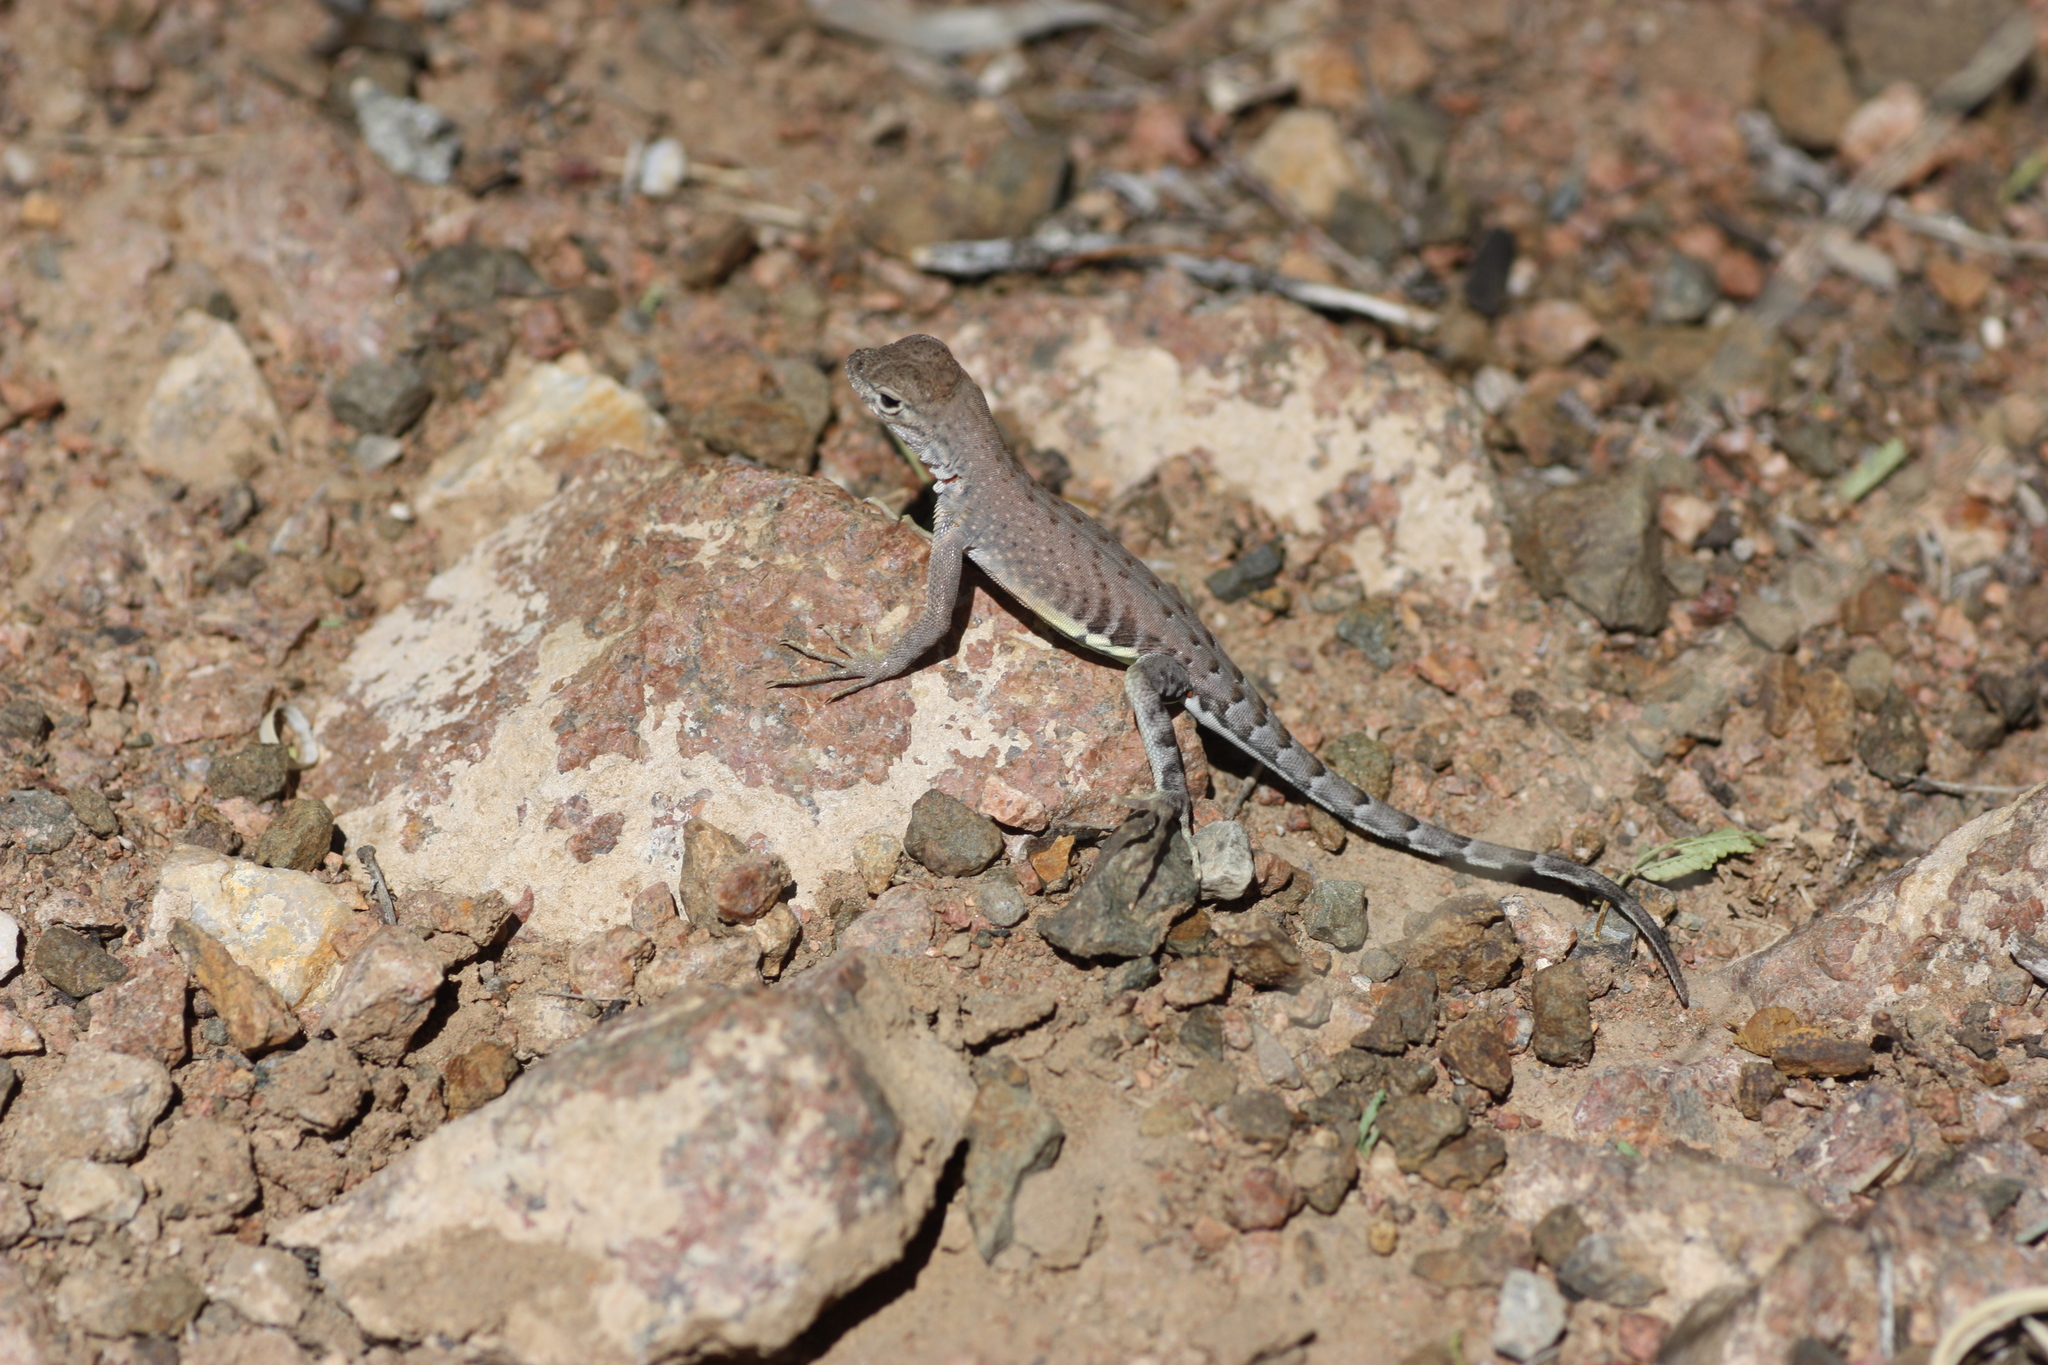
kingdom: Animalia
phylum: Chordata
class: Squamata
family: Phrynosomatidae
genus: Cophosaurus
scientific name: Cophosaurus texanus
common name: Greater earless lizard
